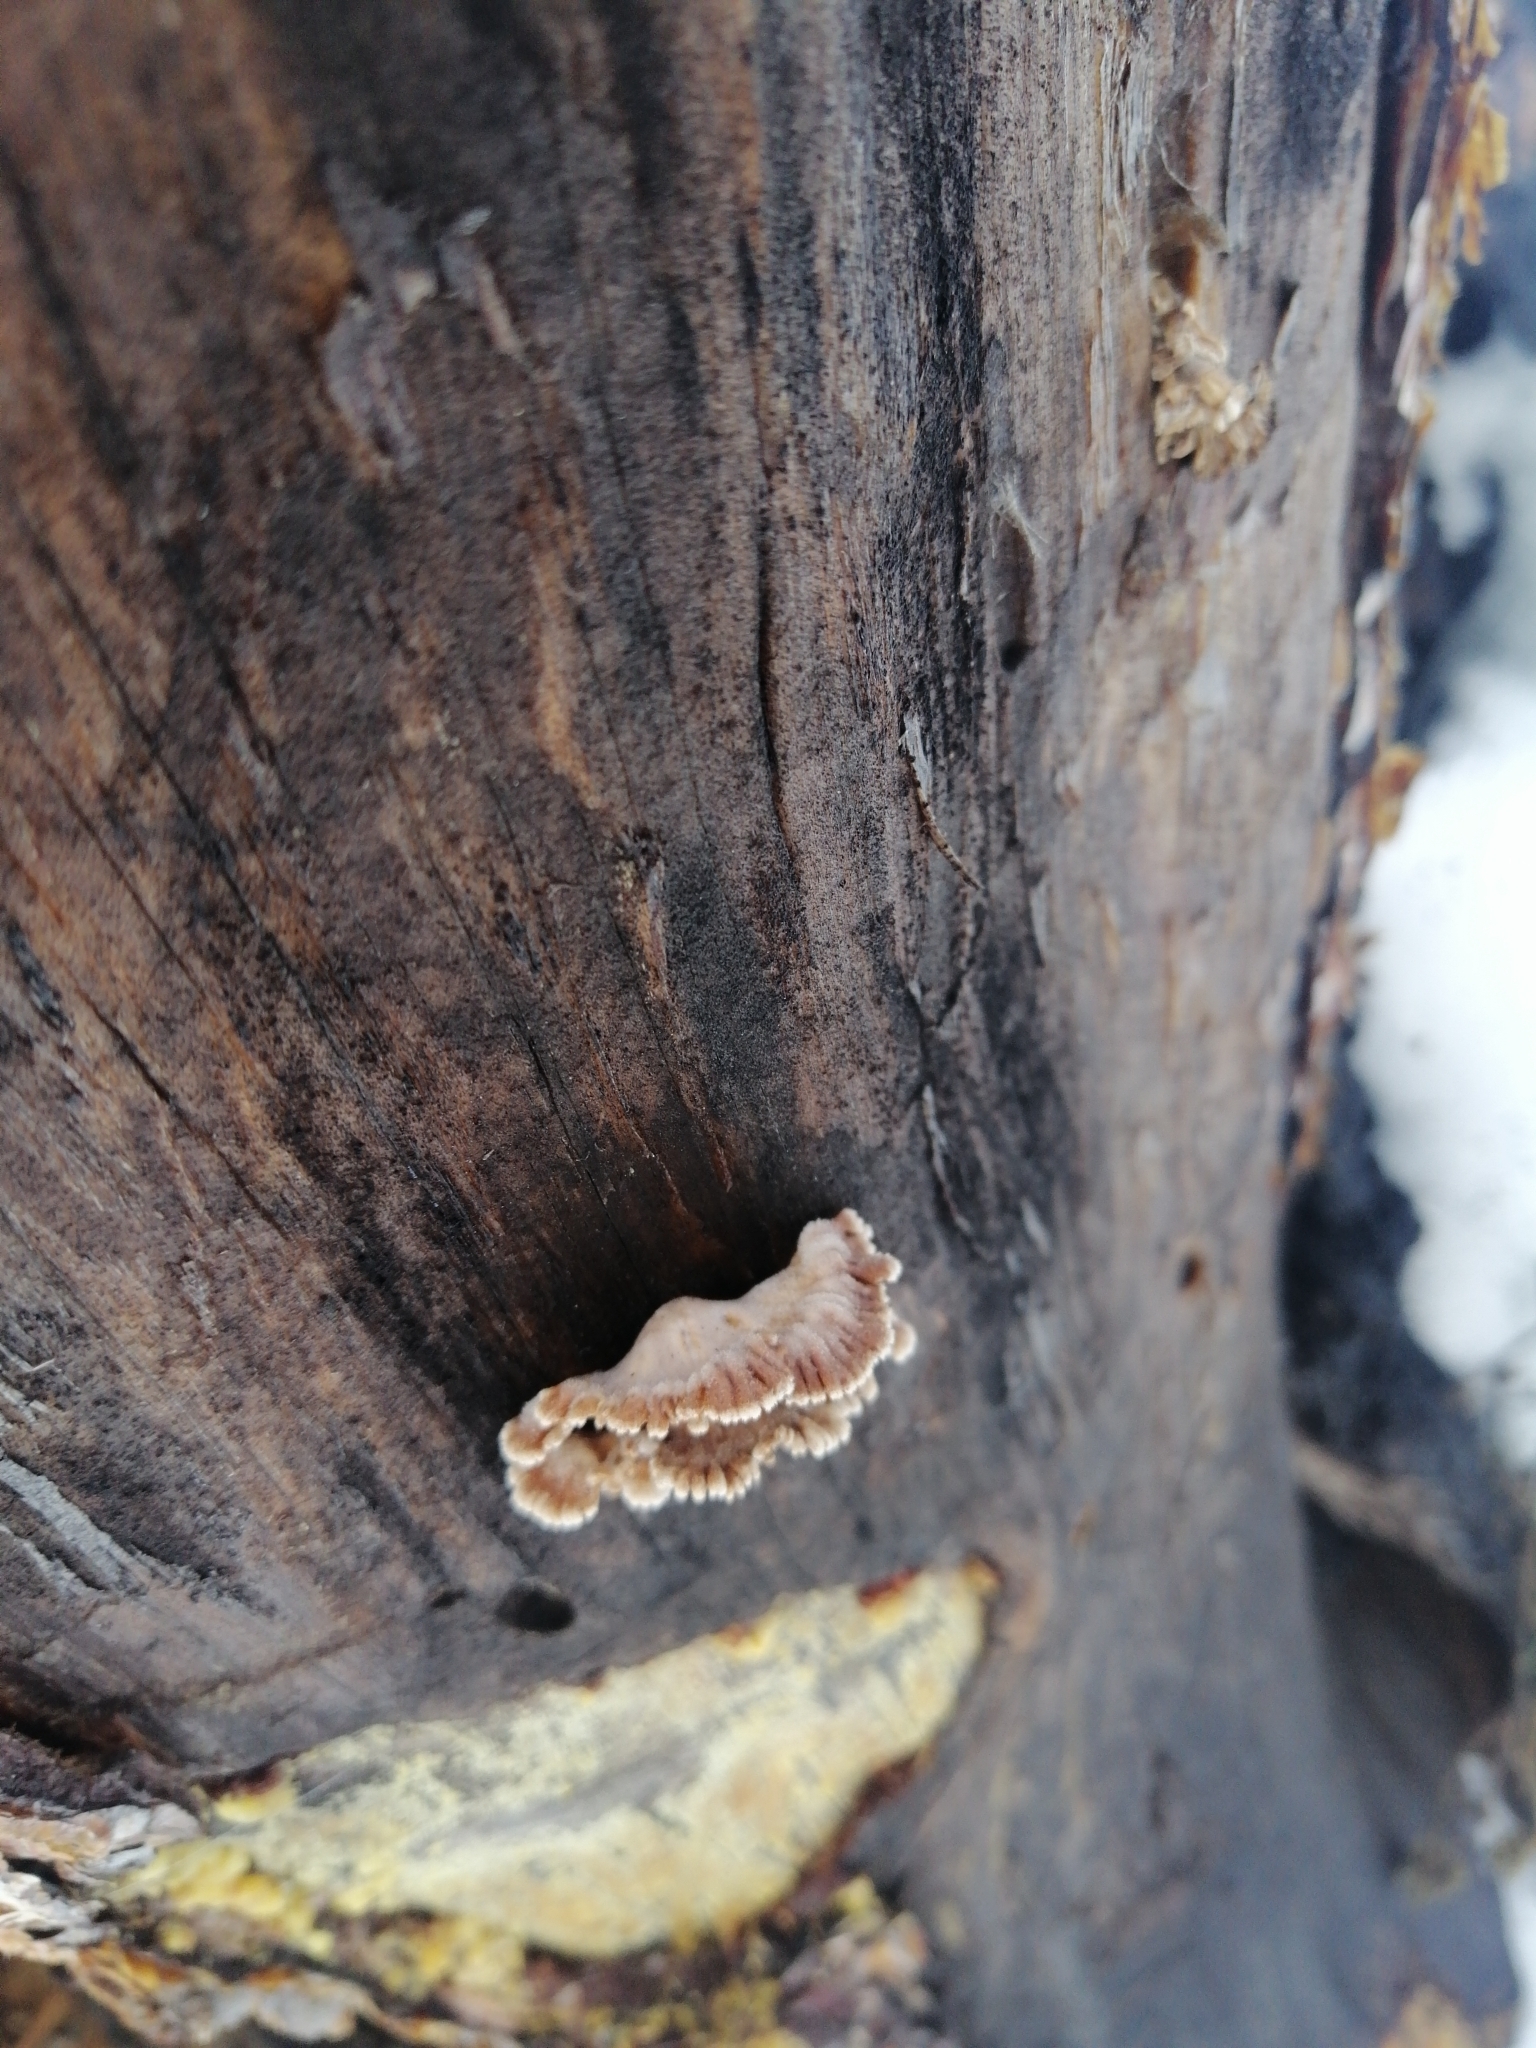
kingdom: Fungi
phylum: Basidiomycota
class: Agaricomycetes
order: Agaricales
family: Schizophyllaceae
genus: Schizophyllum
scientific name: Schizophyllum commune
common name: Common porecrust
